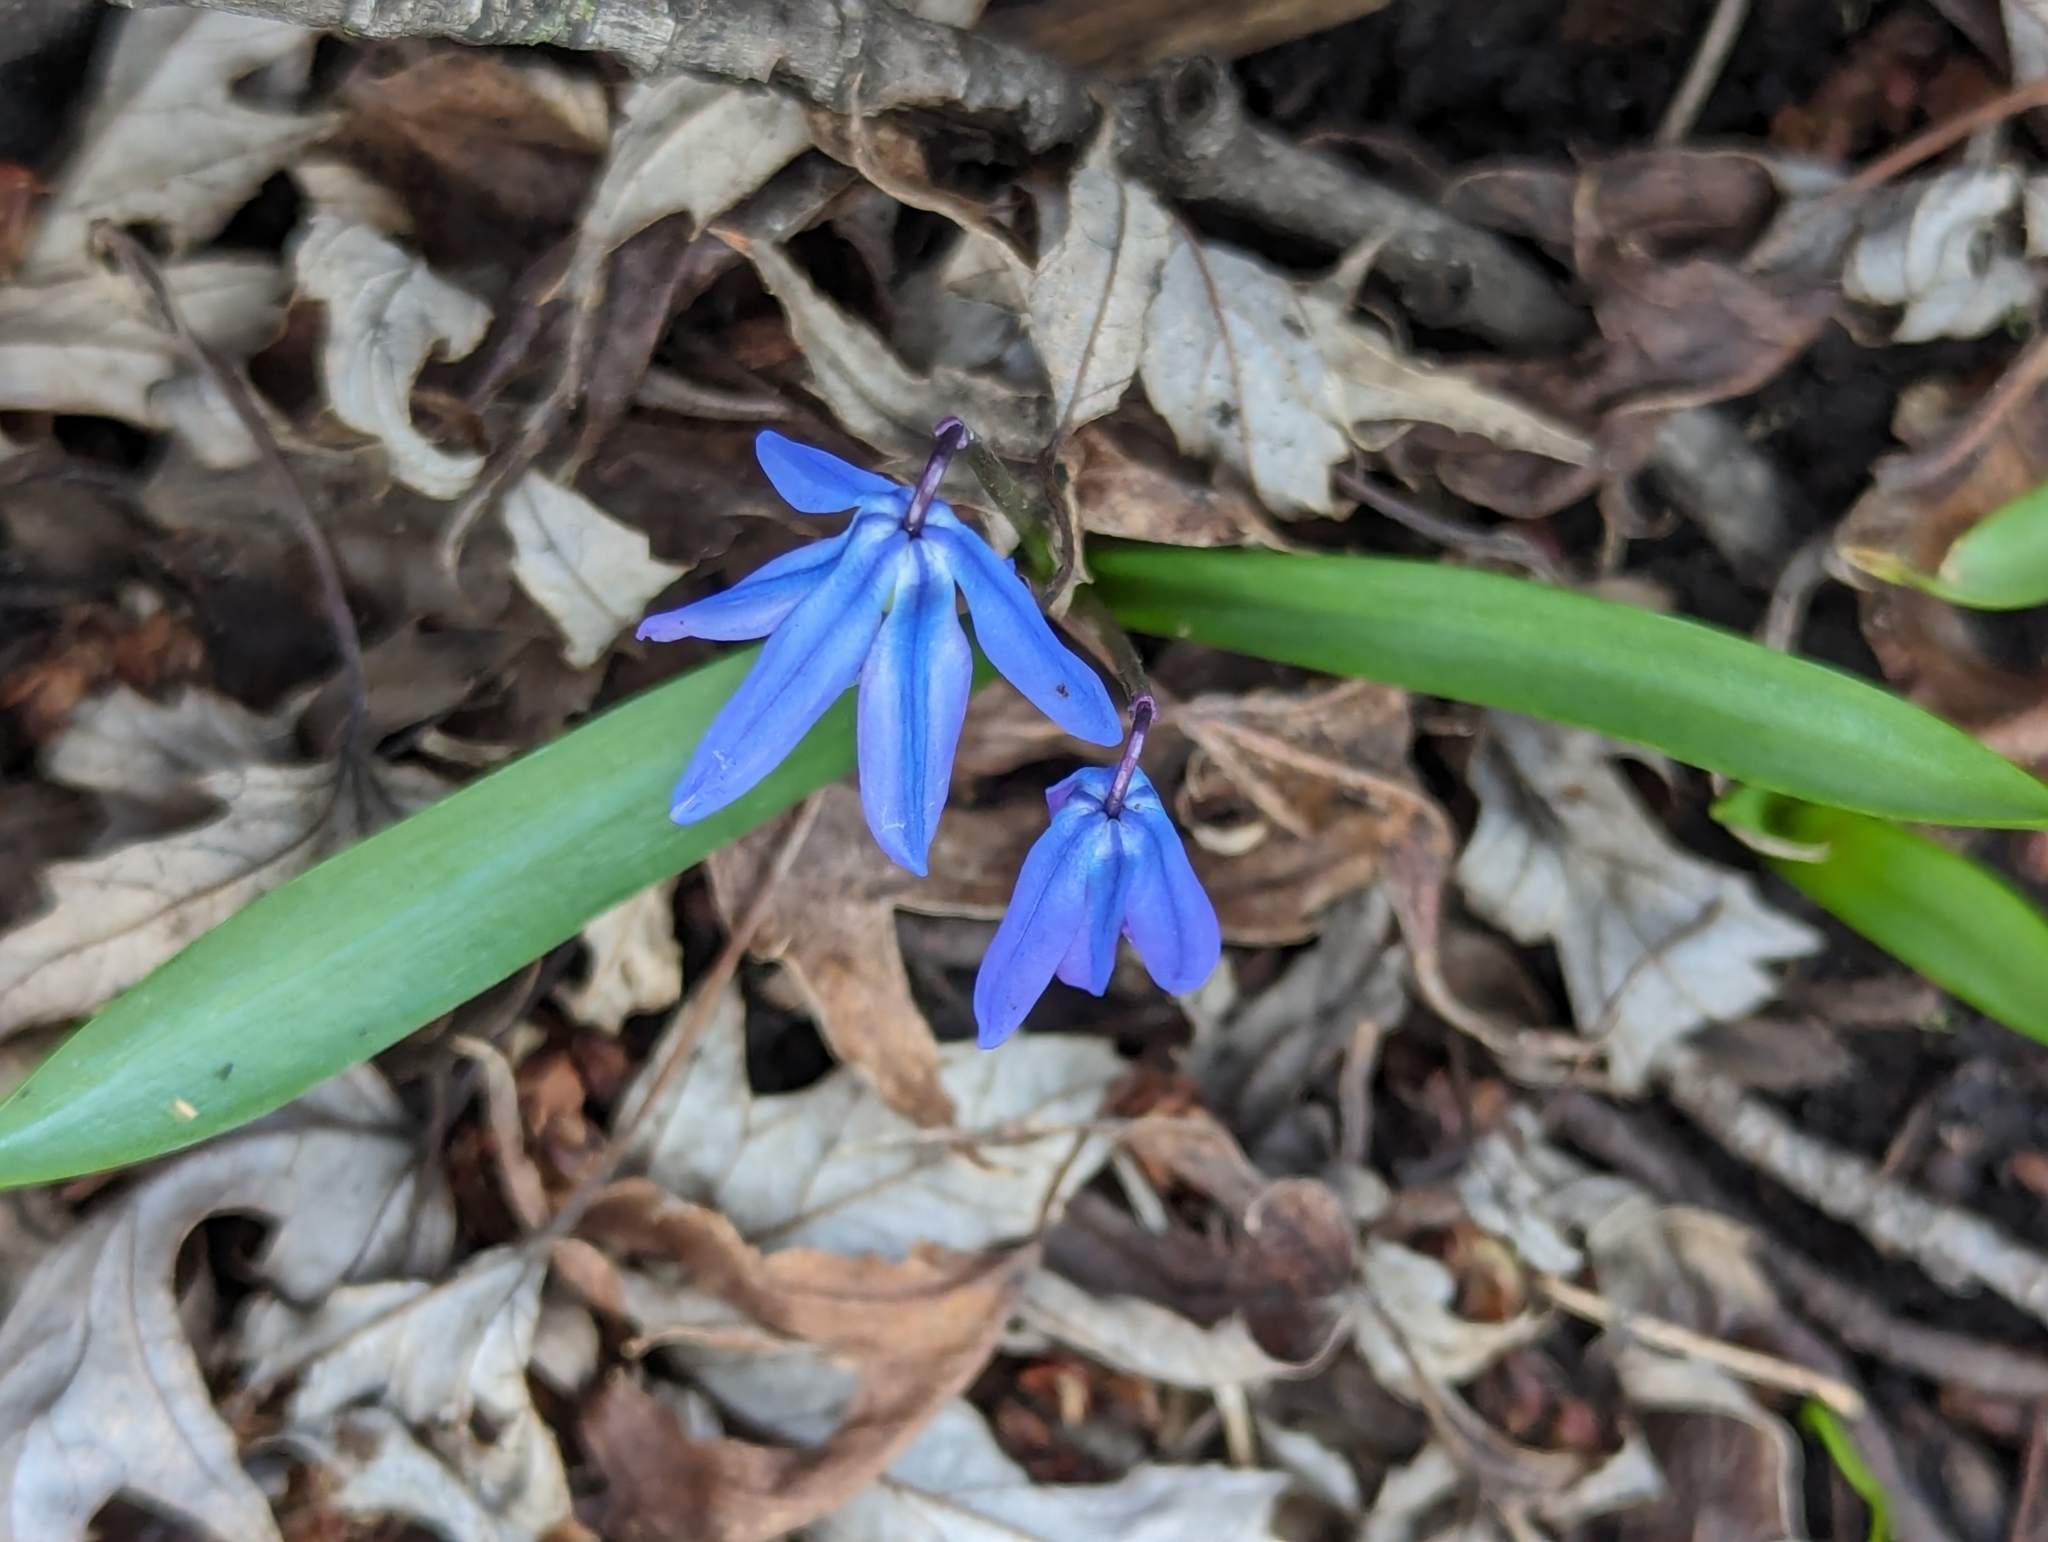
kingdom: Plantae
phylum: Tracheophyta
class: Liliopsida
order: Asparagales
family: Asparagaceae
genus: Scilla
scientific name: Scilla siberica
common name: Siberian squill
